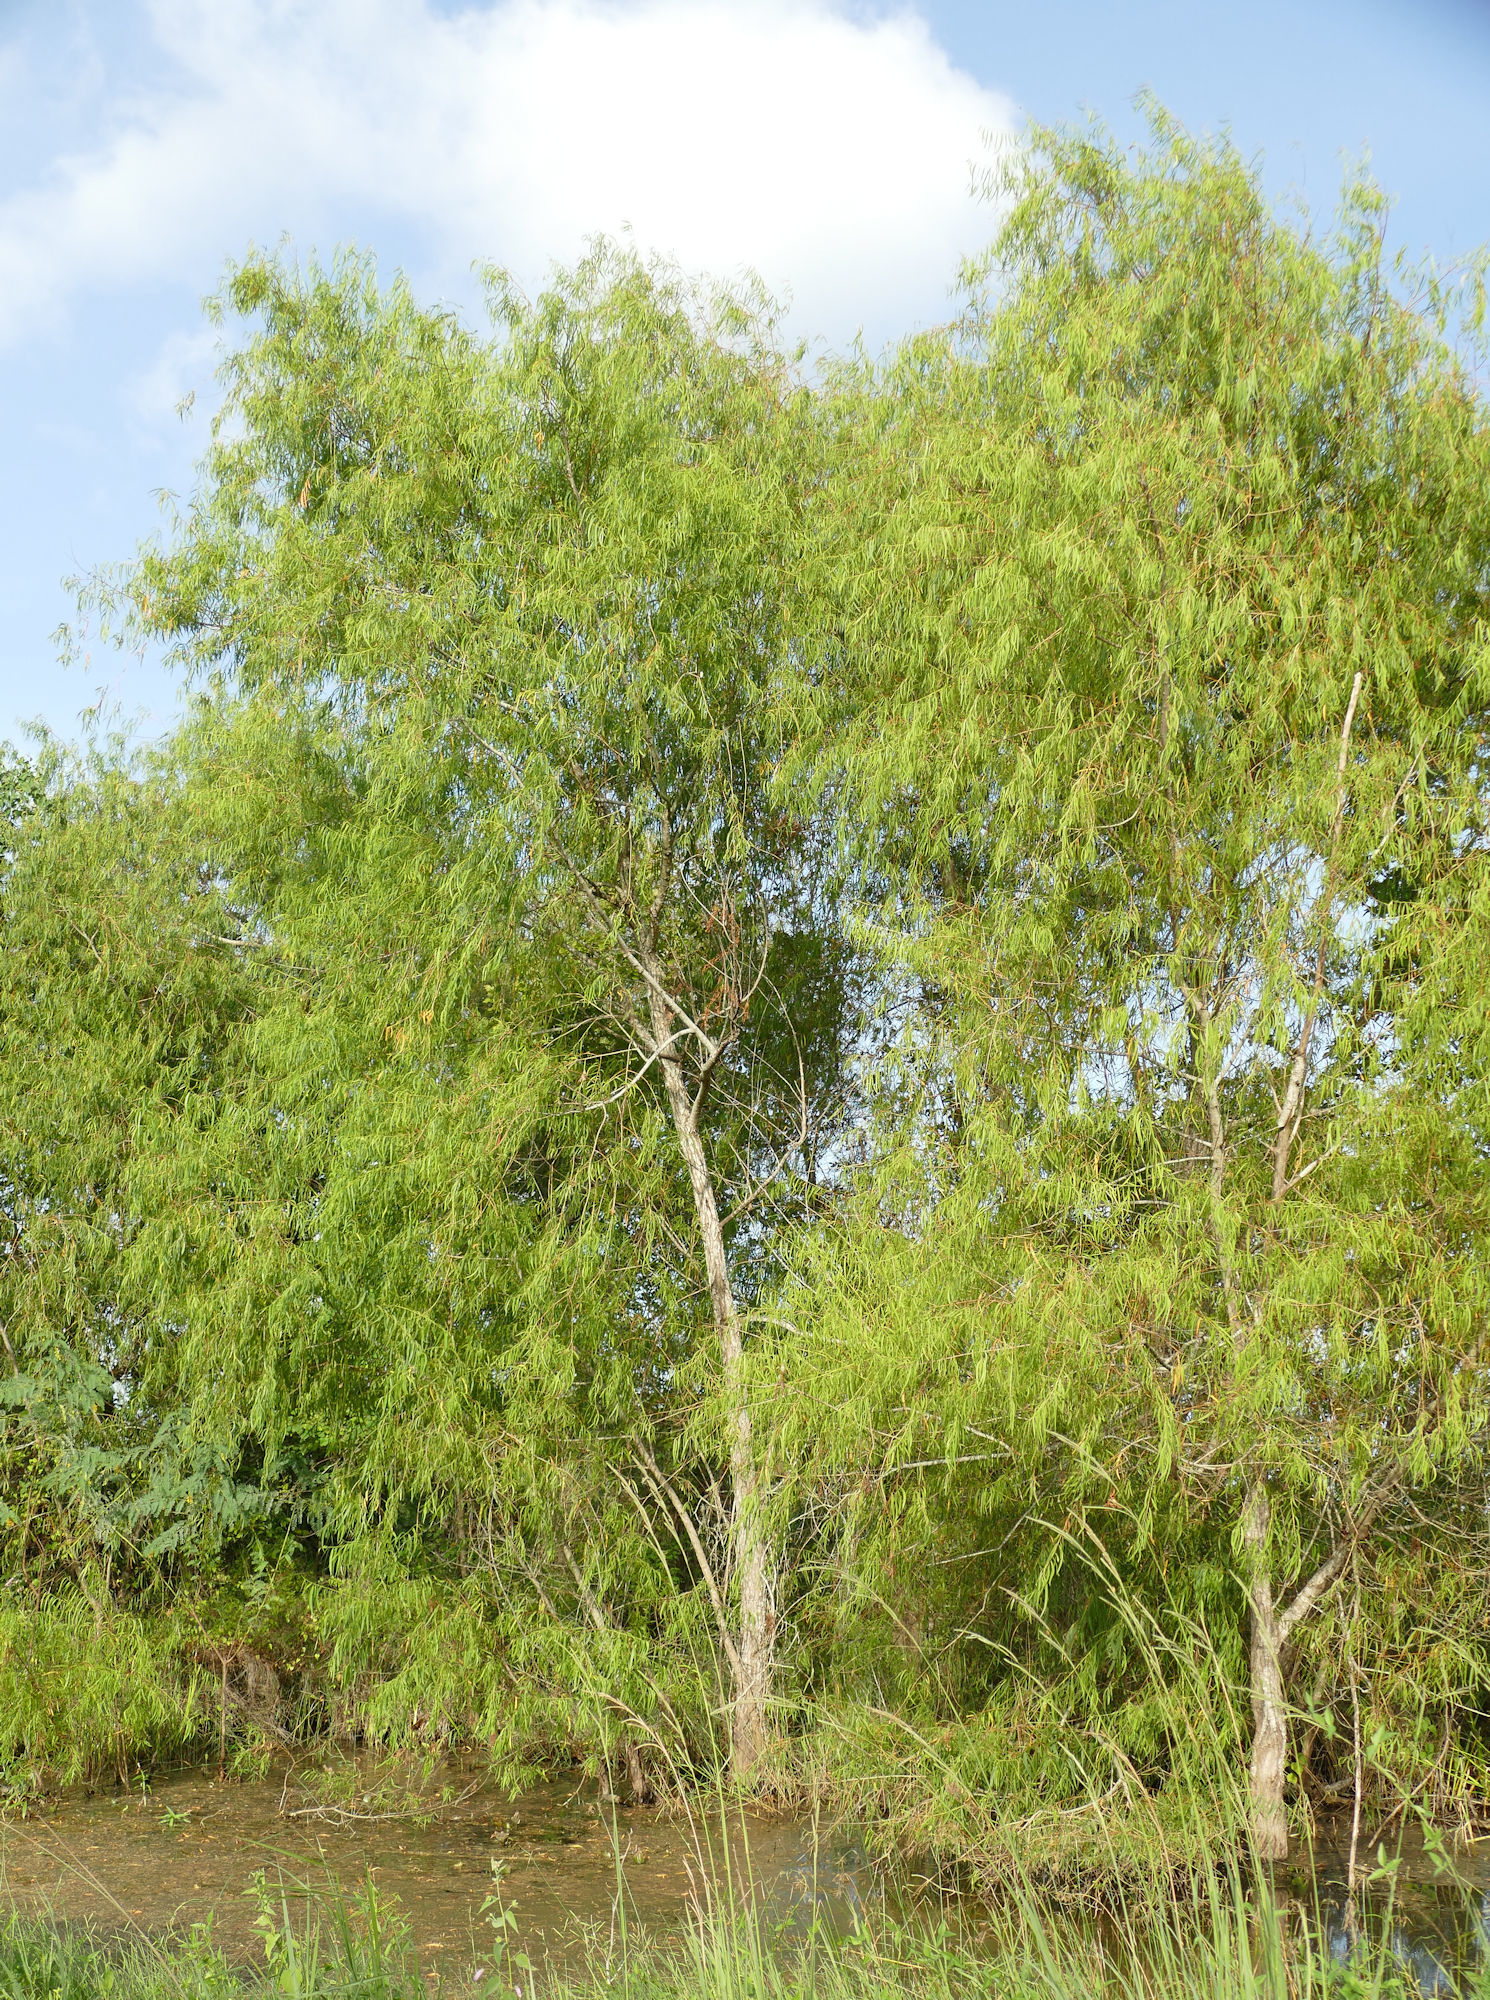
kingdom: Plantae
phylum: Tracheophyta
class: Magnoliopsida
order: Malpighiales
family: Salicaceae
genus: Salix
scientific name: Salix nigra
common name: Black willow
